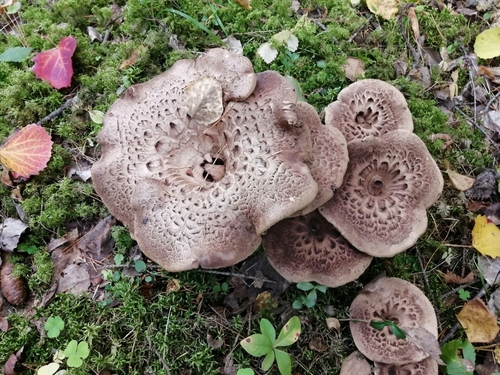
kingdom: Fungi
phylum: Basidiomycota
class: Agaricomycetes
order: Thelephorales
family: Bankeraceae
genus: Sarcodon
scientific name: Sarcodon squamosus
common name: Scaly tooth
